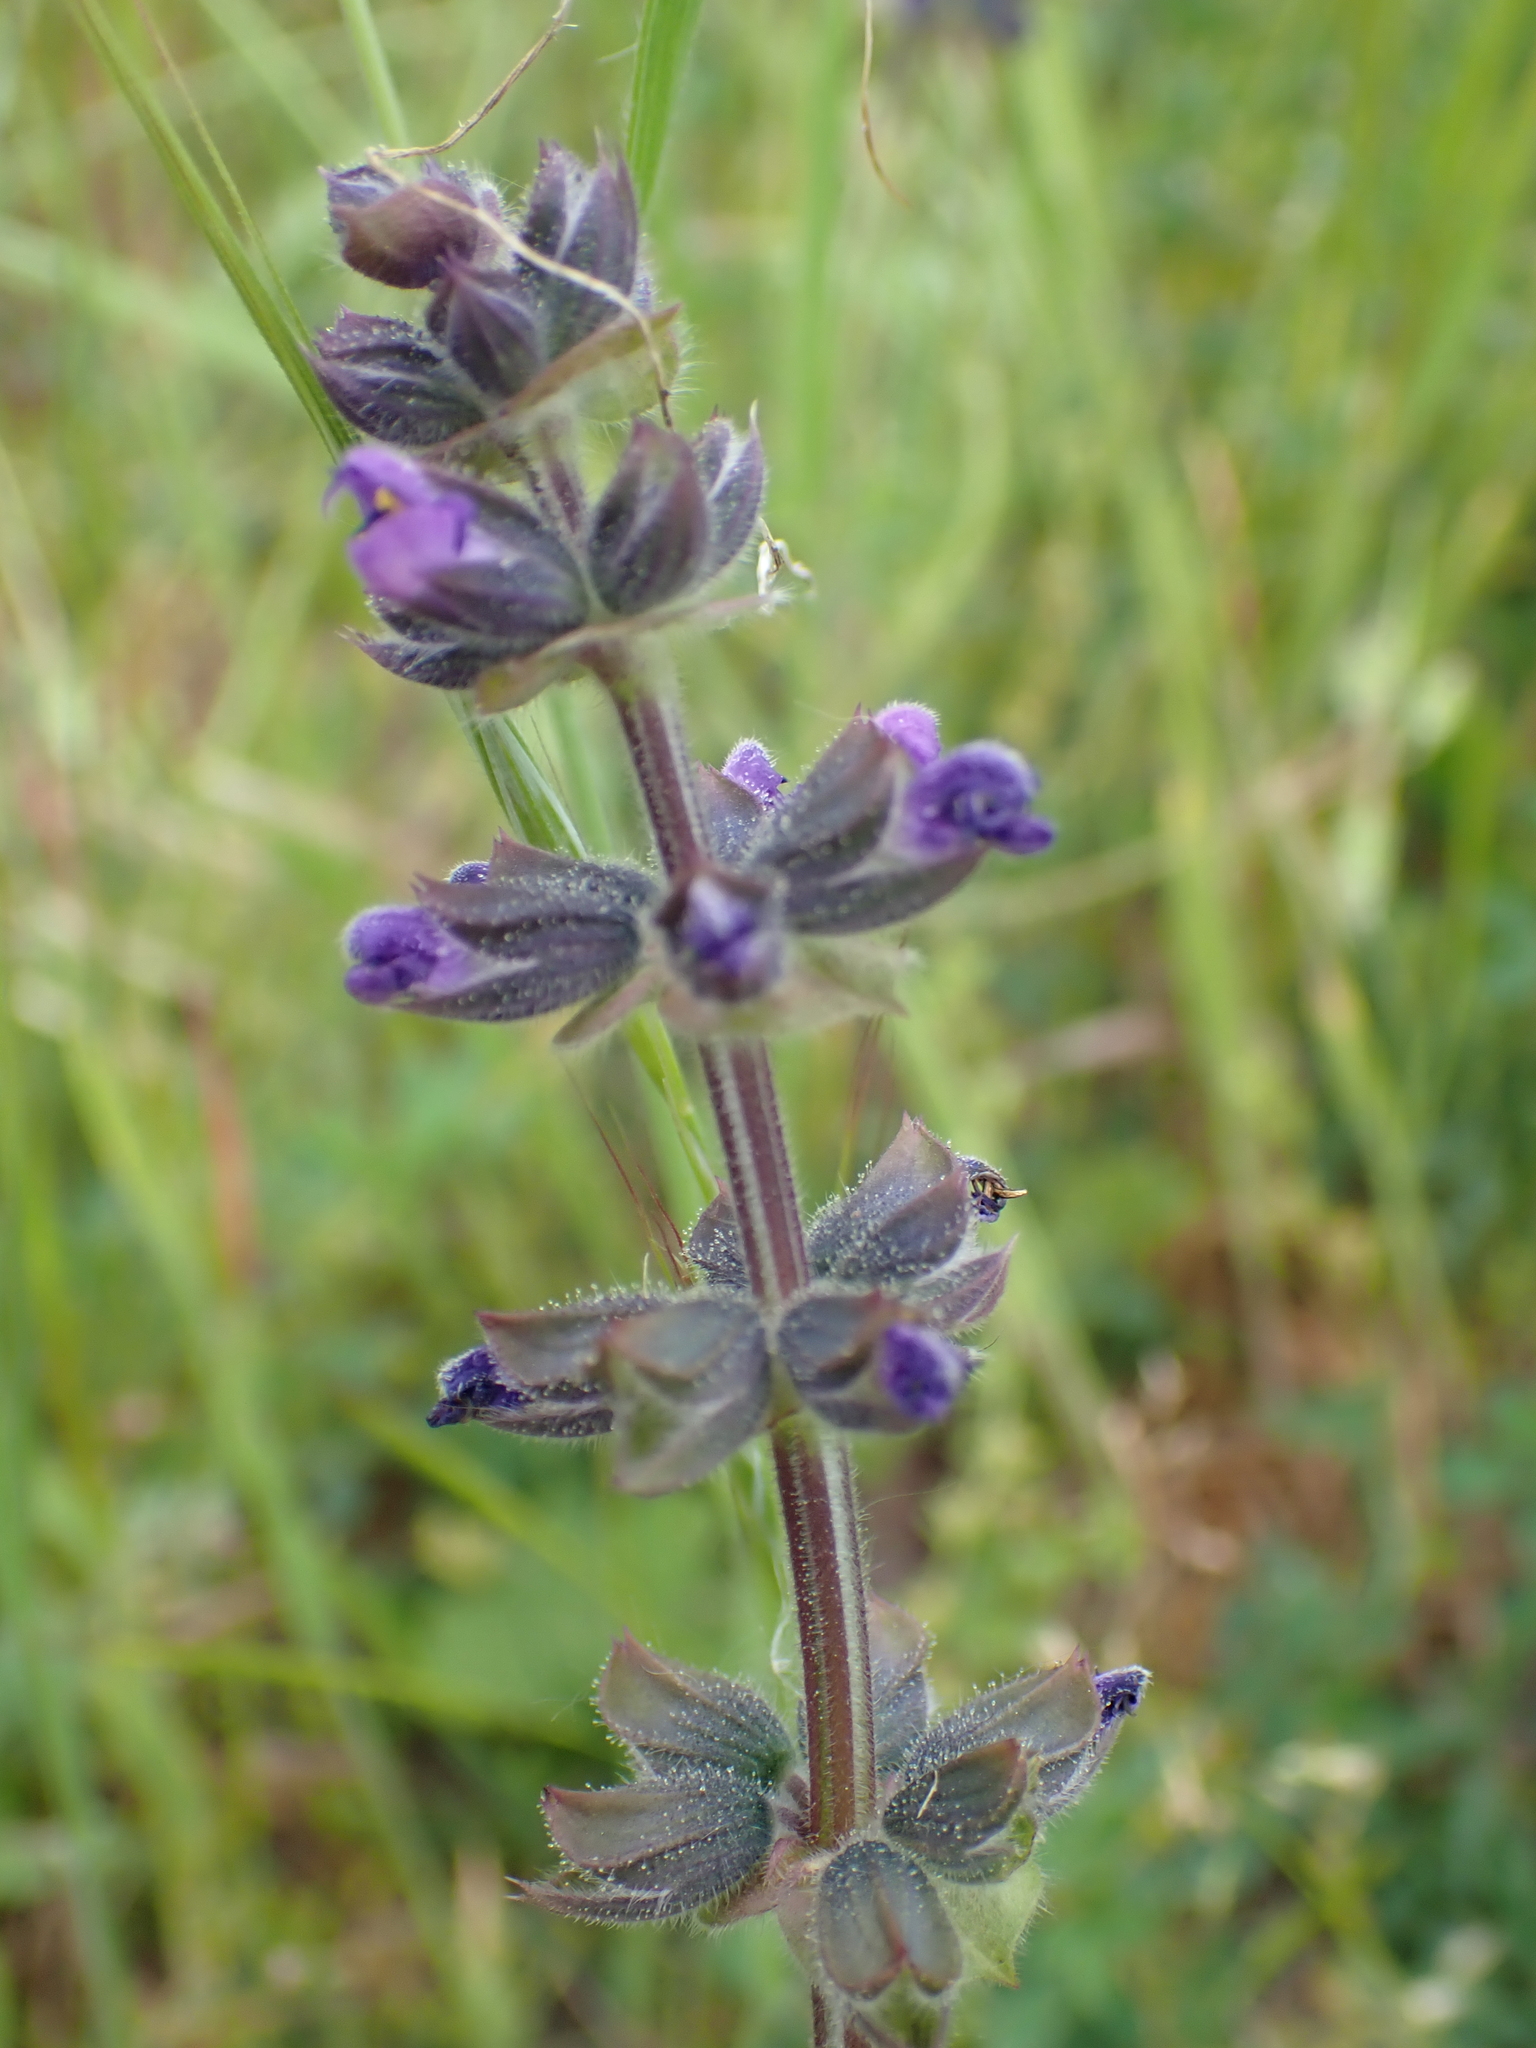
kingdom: Plantae
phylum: Tracheophyta
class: Magnoliopsida
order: Lamiales
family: Lamiaceae
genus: Salvia
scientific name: Salvia verbenaca
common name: Wild clary
